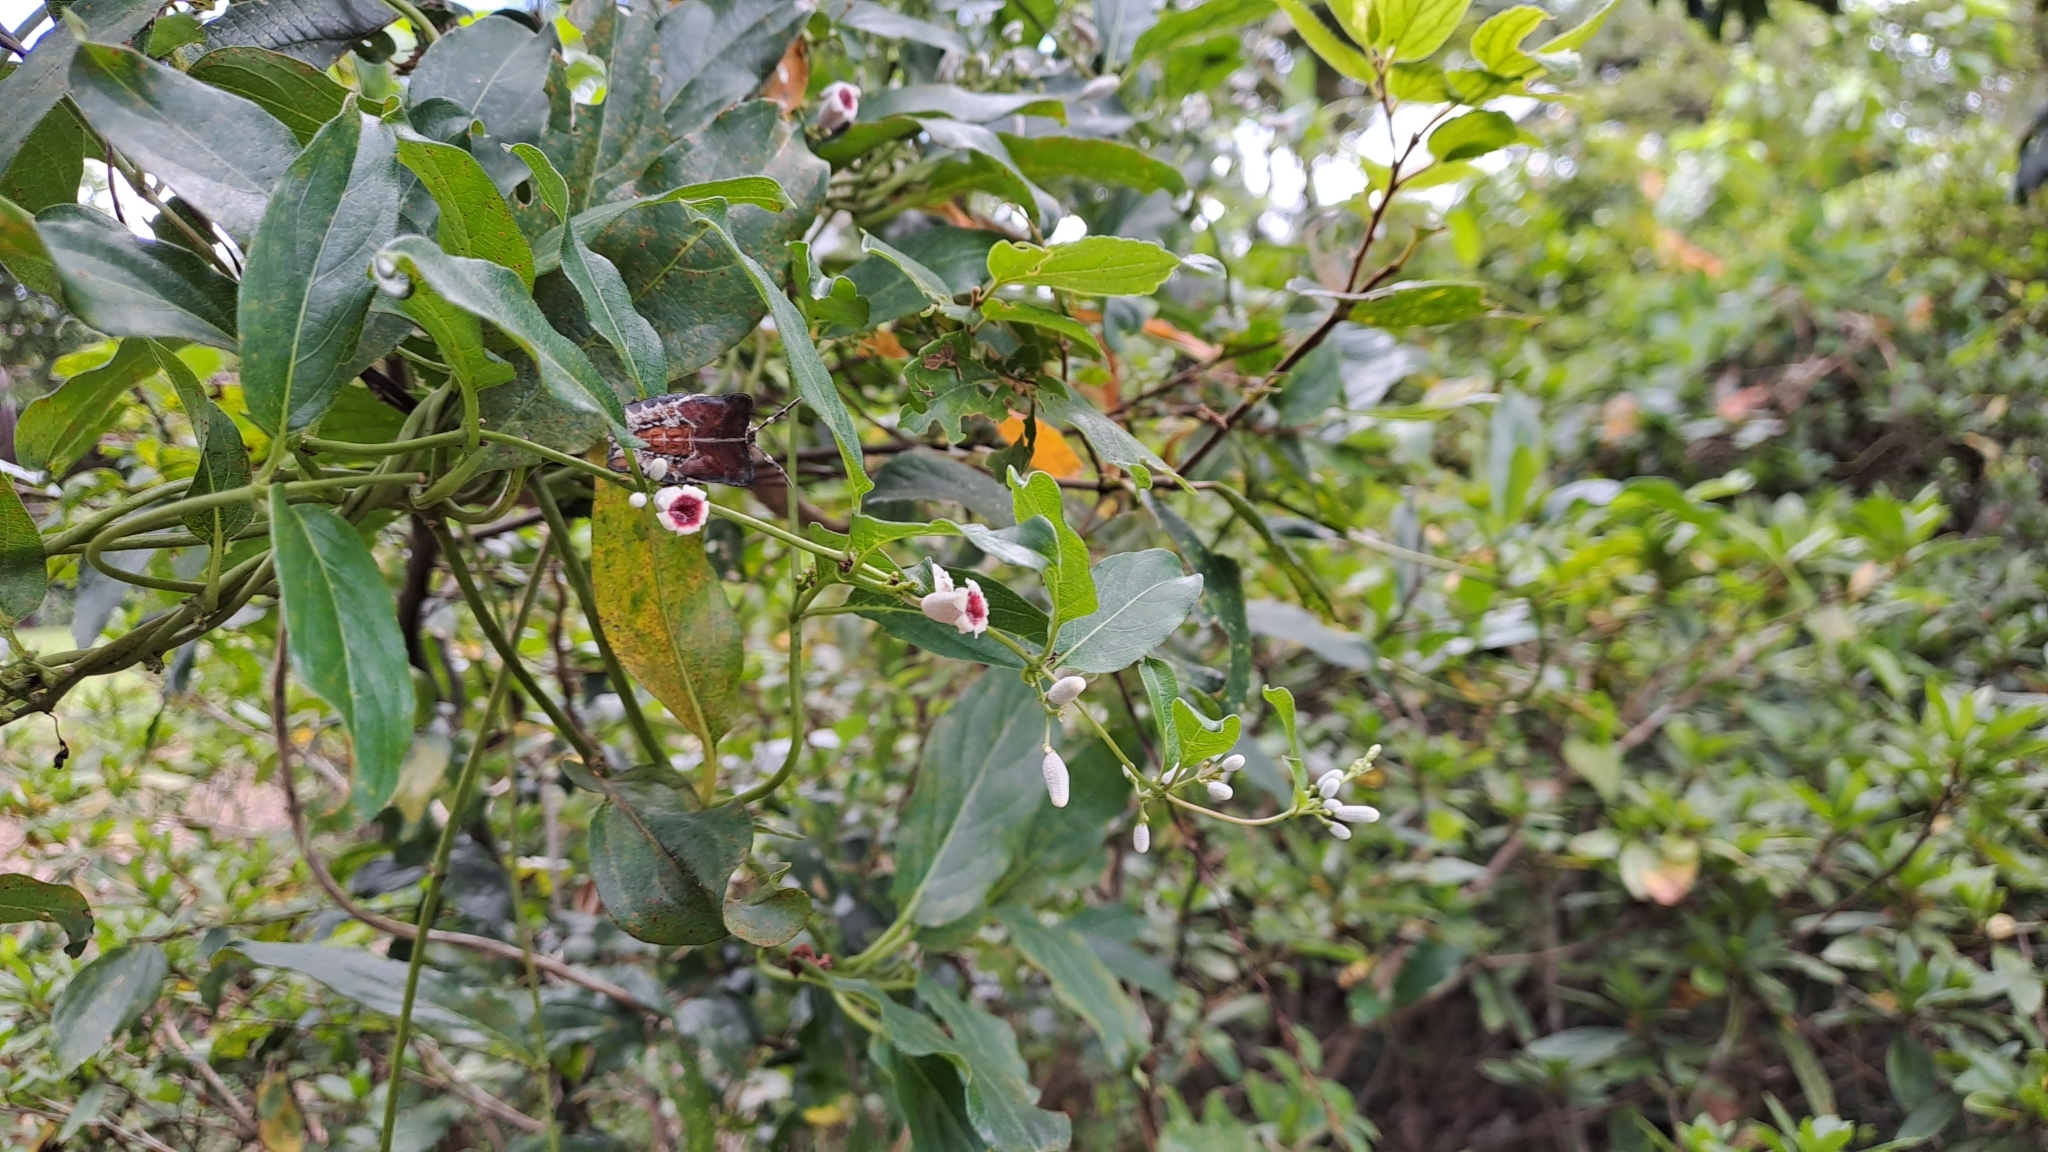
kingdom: Plantae
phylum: Tracheophyta
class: Magnoliopsida
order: Gentianales
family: Rubiaceae
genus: Paederia
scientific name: Paederia foetida
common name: Stinkvine
